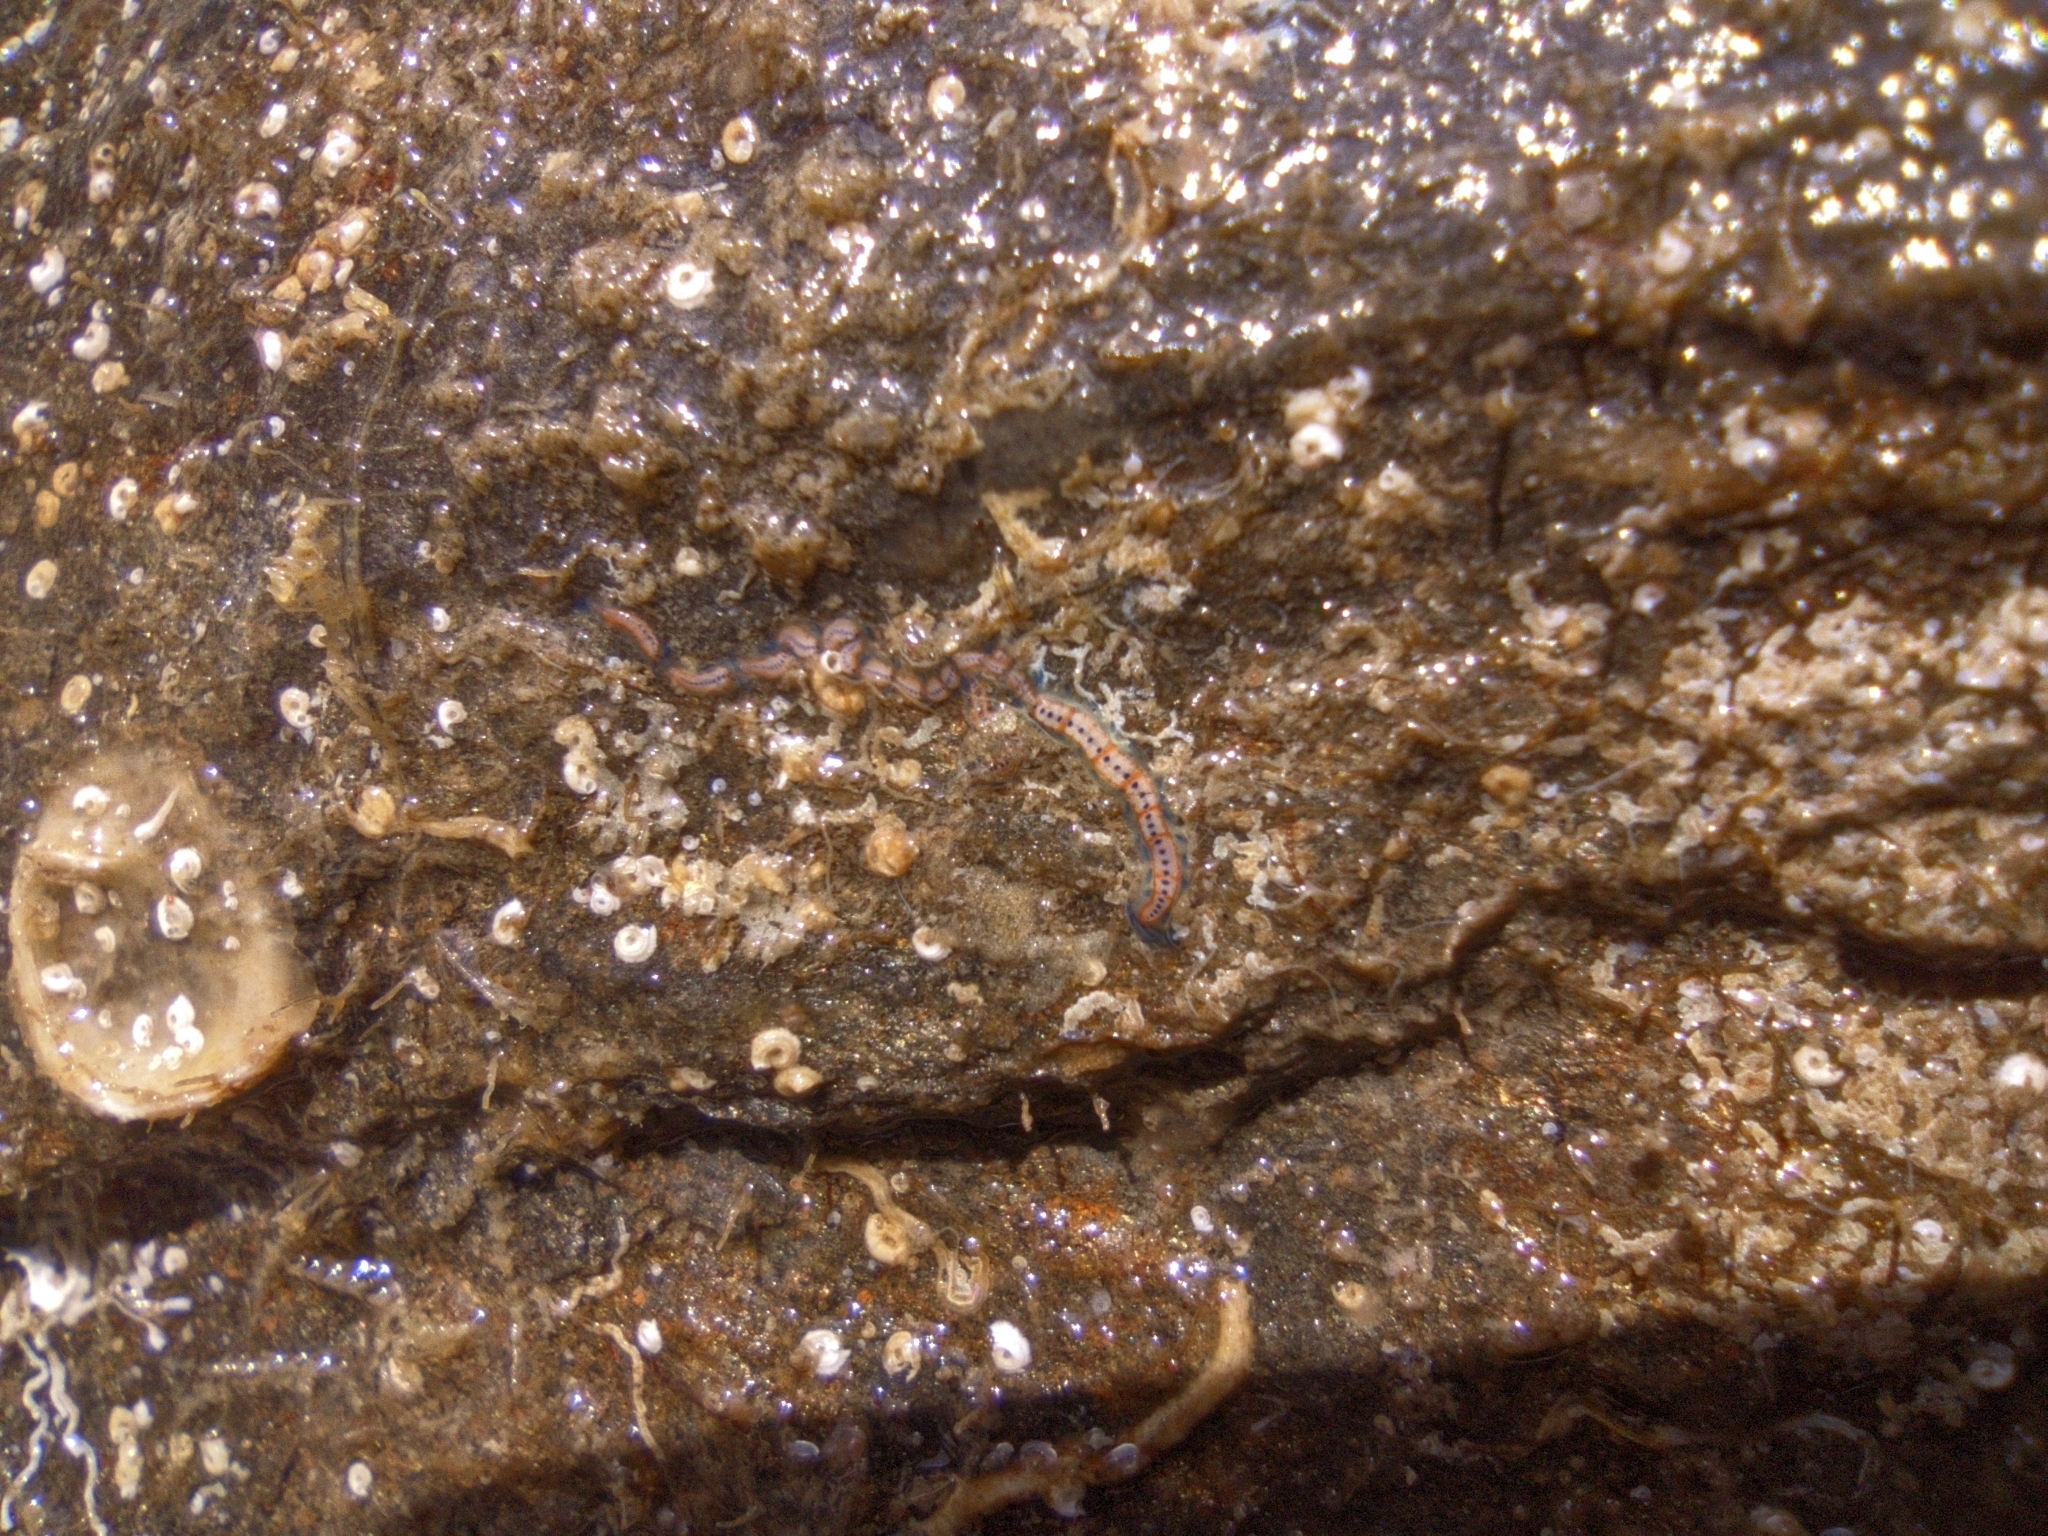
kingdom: Animalia
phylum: Annelida
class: Polychaeta
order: Phyllodocida
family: Syllidae
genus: Myrianida
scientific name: Myrianida pachycera
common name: Syllid polychaete
